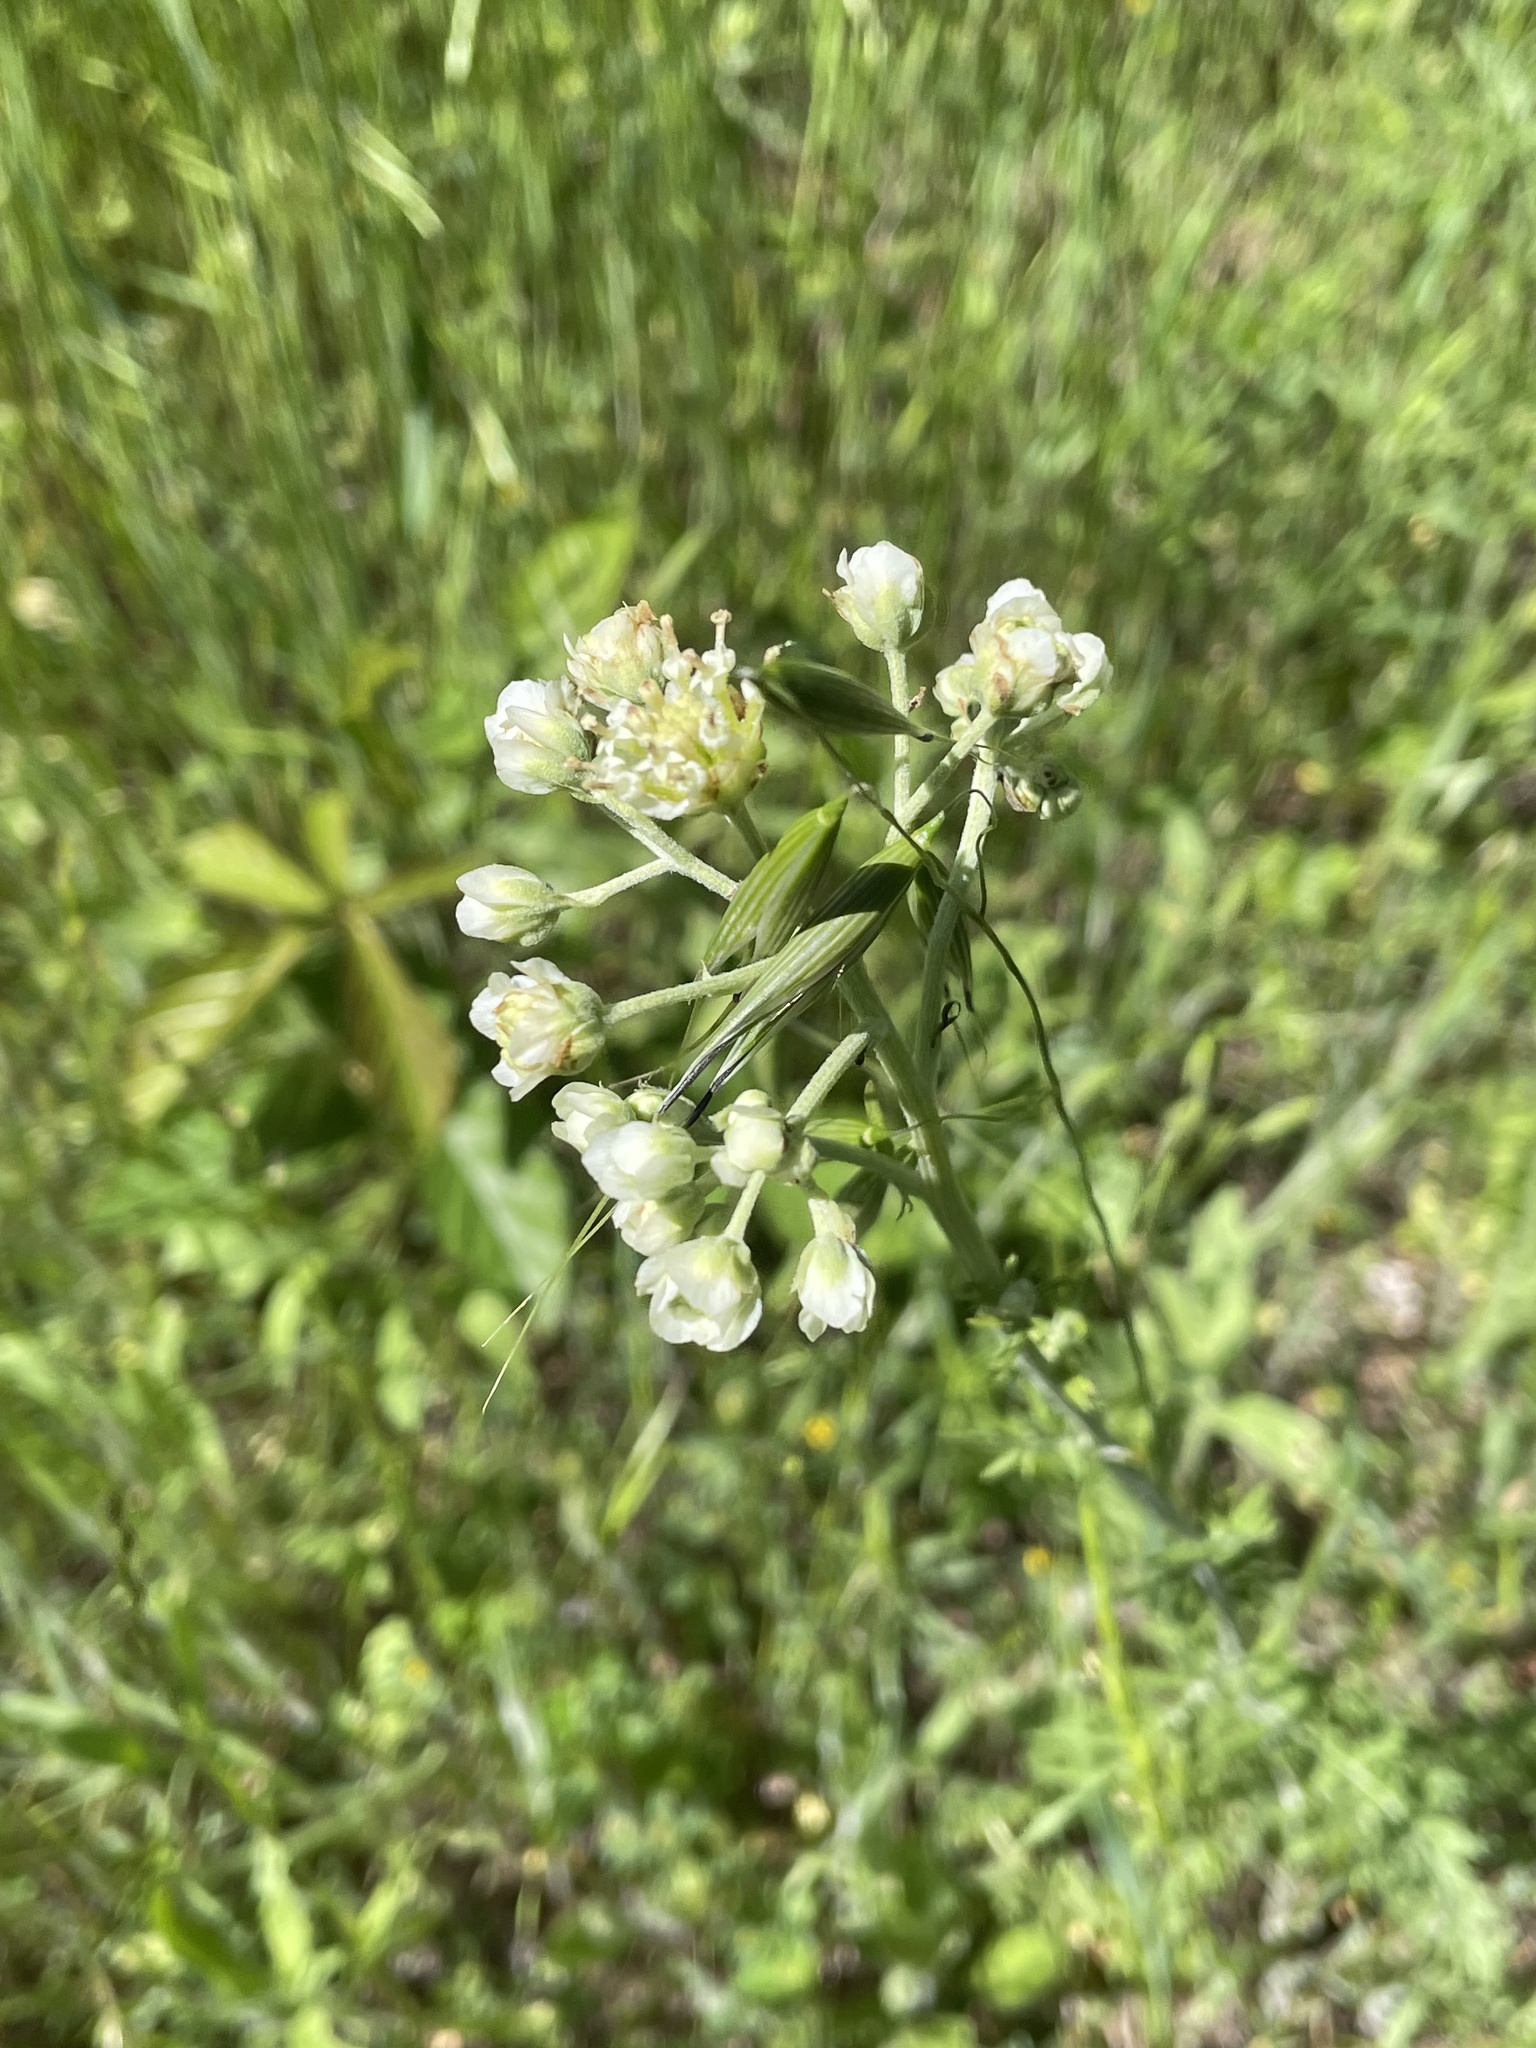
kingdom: Plantae
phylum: Tracheophyta
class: Magnoliopsida
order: Asterales
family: Asteraceae
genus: Hymenopappus
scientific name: Hymenopappus scabiosaeus
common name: Carolina woollywhite
